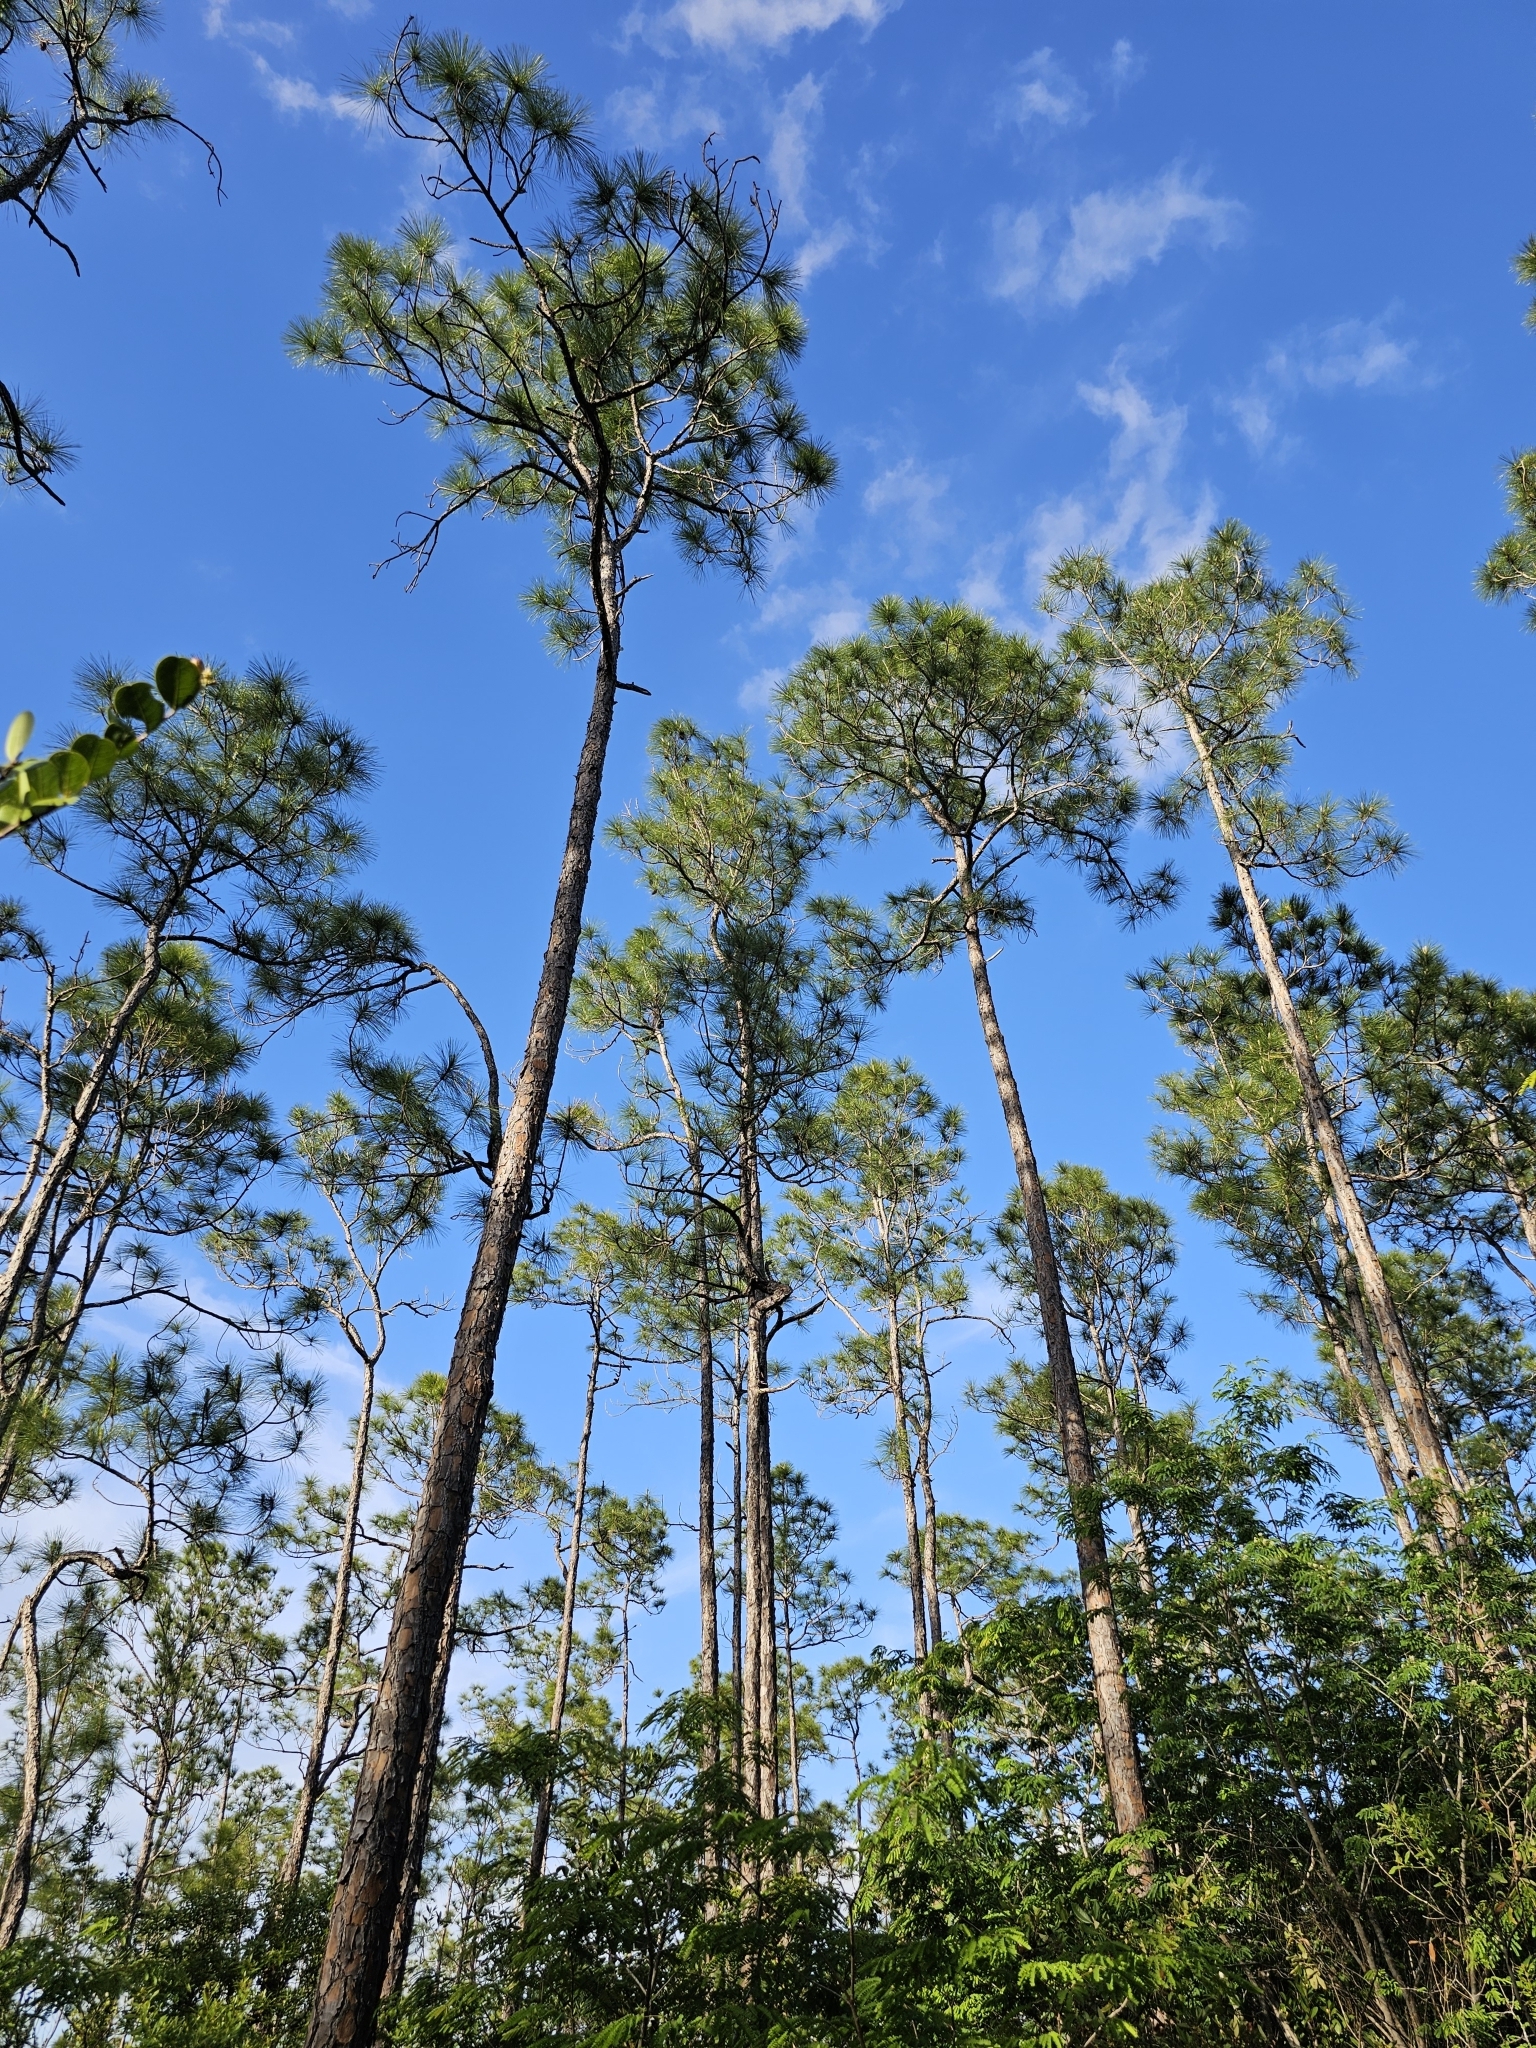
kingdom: Plantae
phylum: Tracheophyta
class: Pinopsida
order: Pinales
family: Pinaceae
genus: Pinus
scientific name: Pinus elliottii
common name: Slash pine
